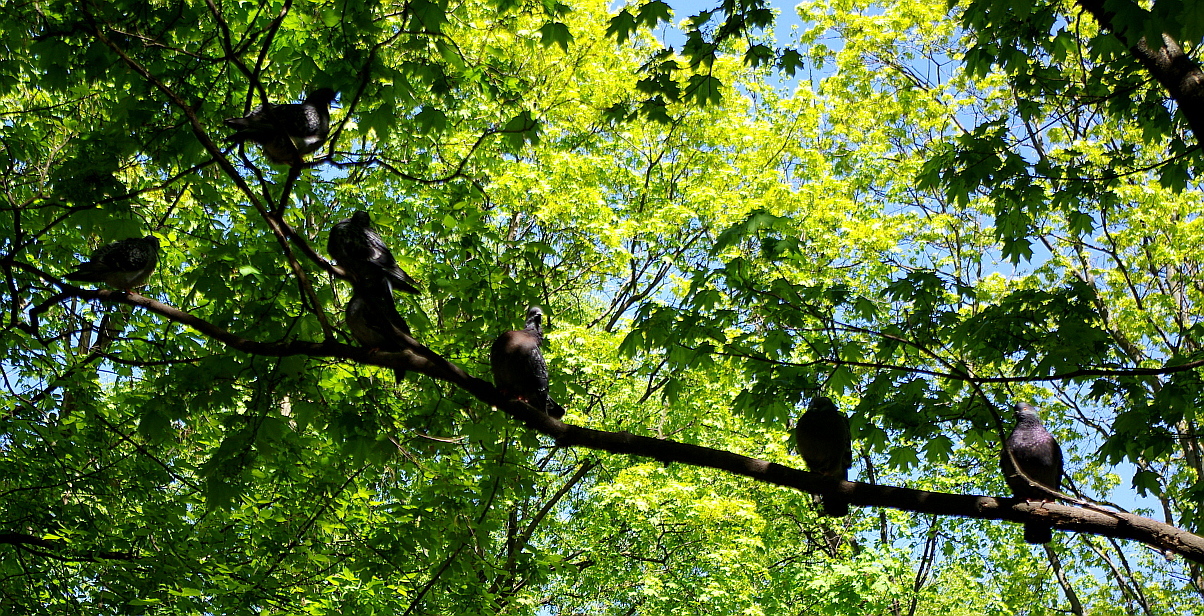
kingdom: Animalia
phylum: Chordata
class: Aves
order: Columbiformes
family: Columbidae
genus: Columba
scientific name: Columba livia
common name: Rock pigeon
